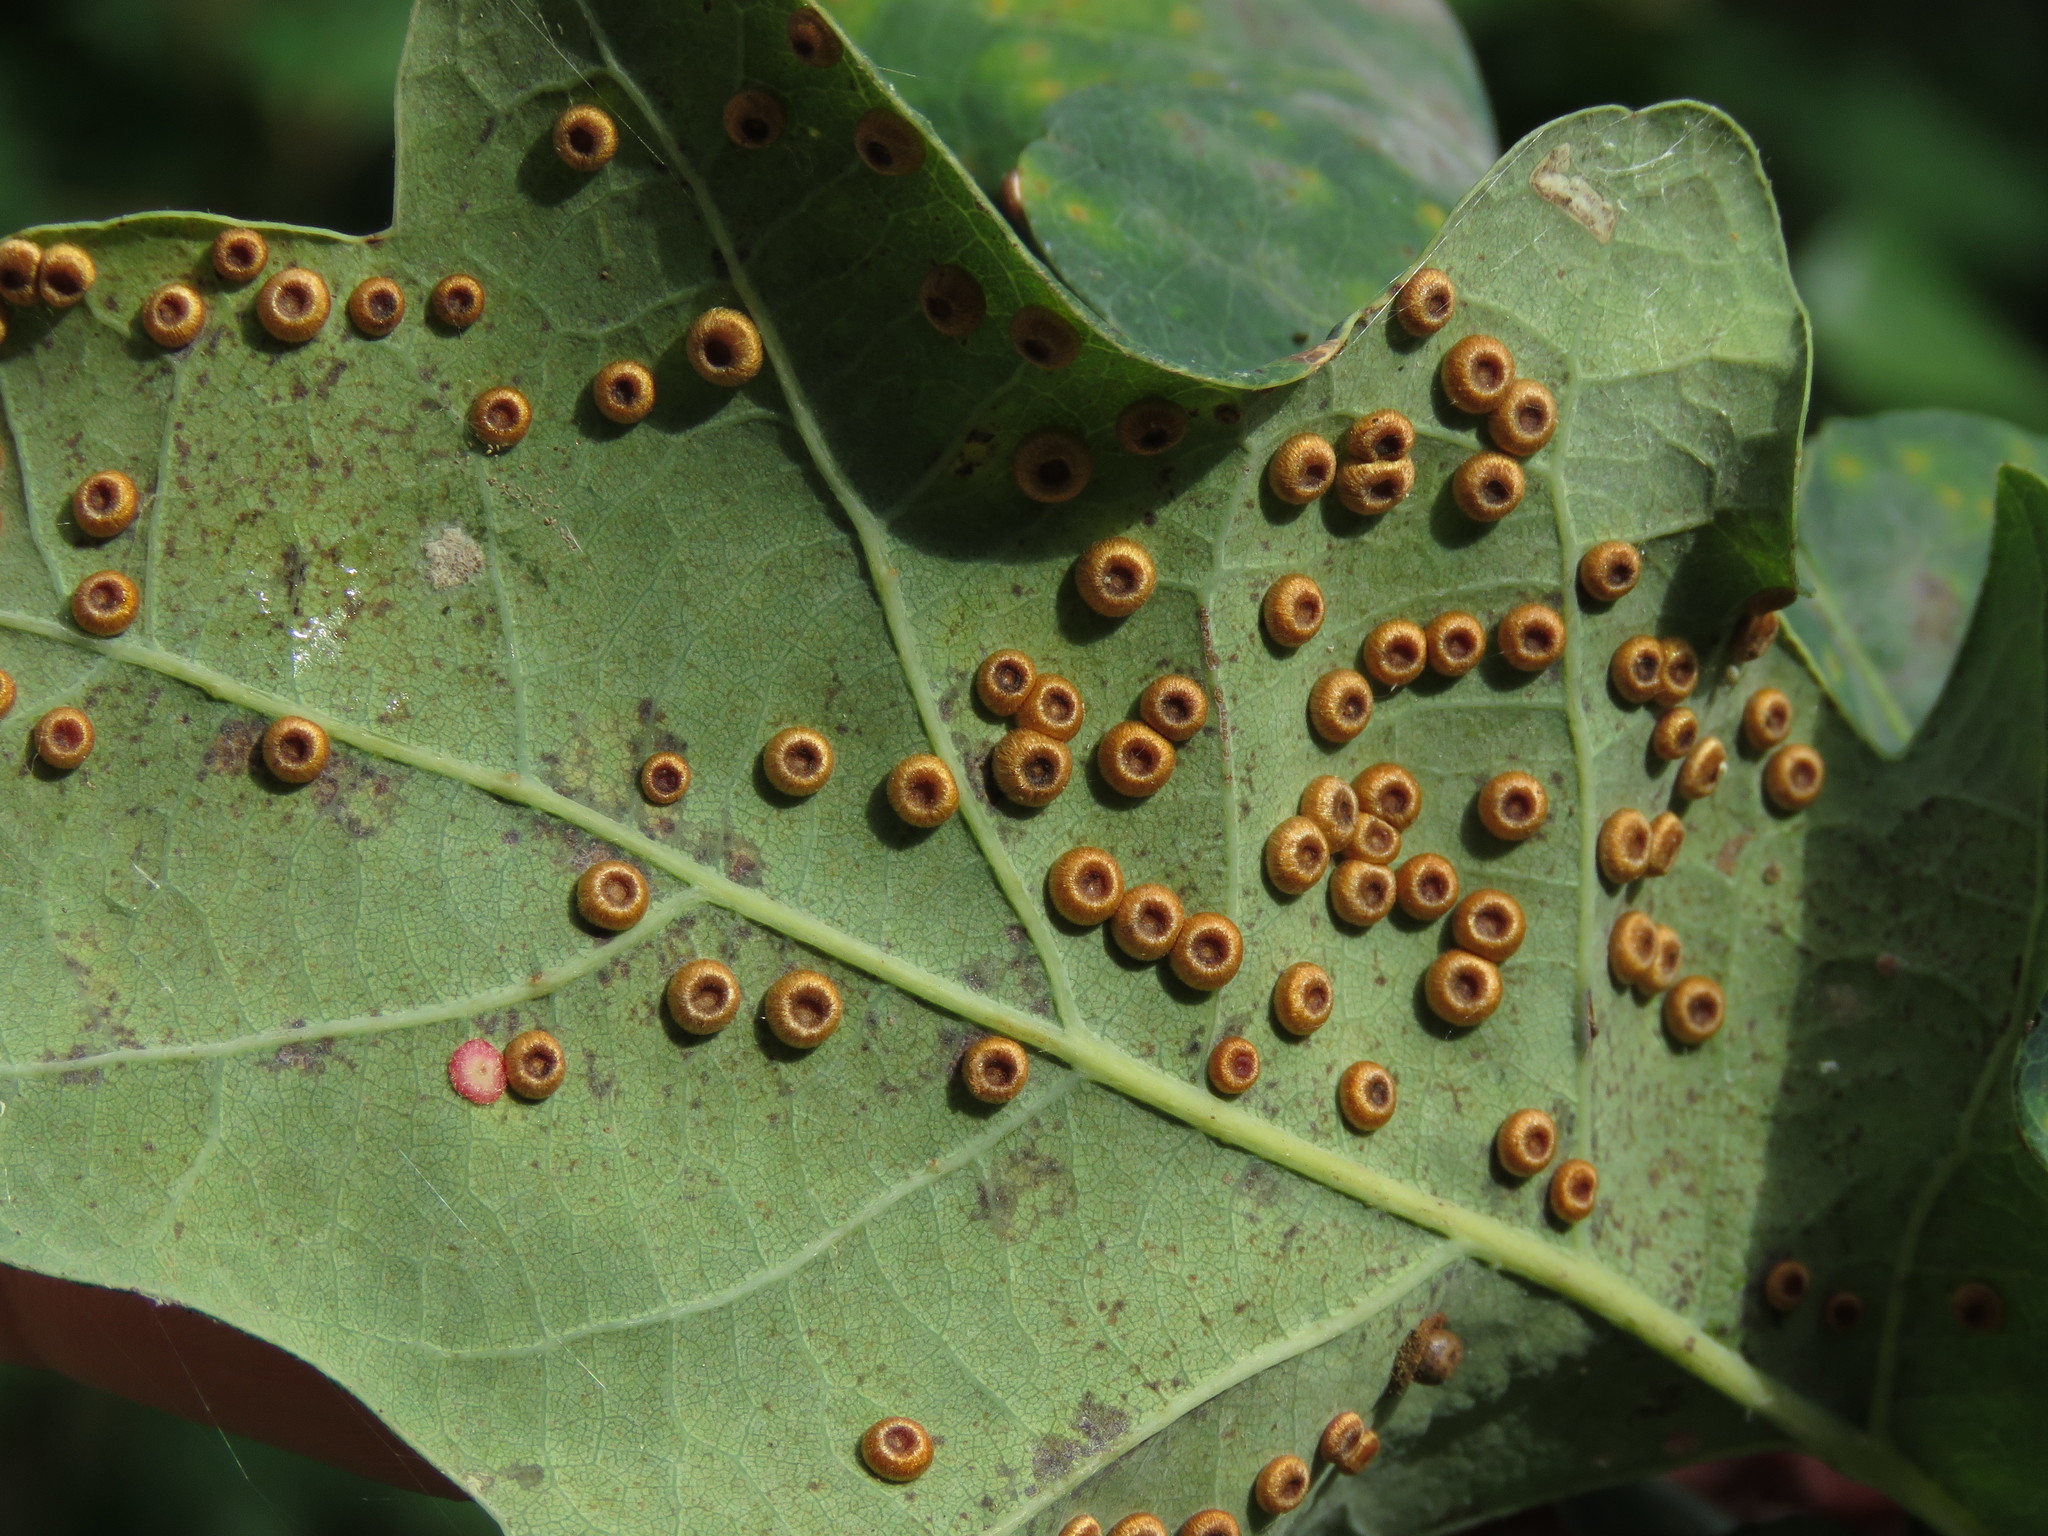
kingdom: Animalia
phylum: Arthropoda
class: Insecta
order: Hymenoptera
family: Cynipidae
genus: Neuroterus
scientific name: Neuroterus numismalis
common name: Silk-button spangle gall
